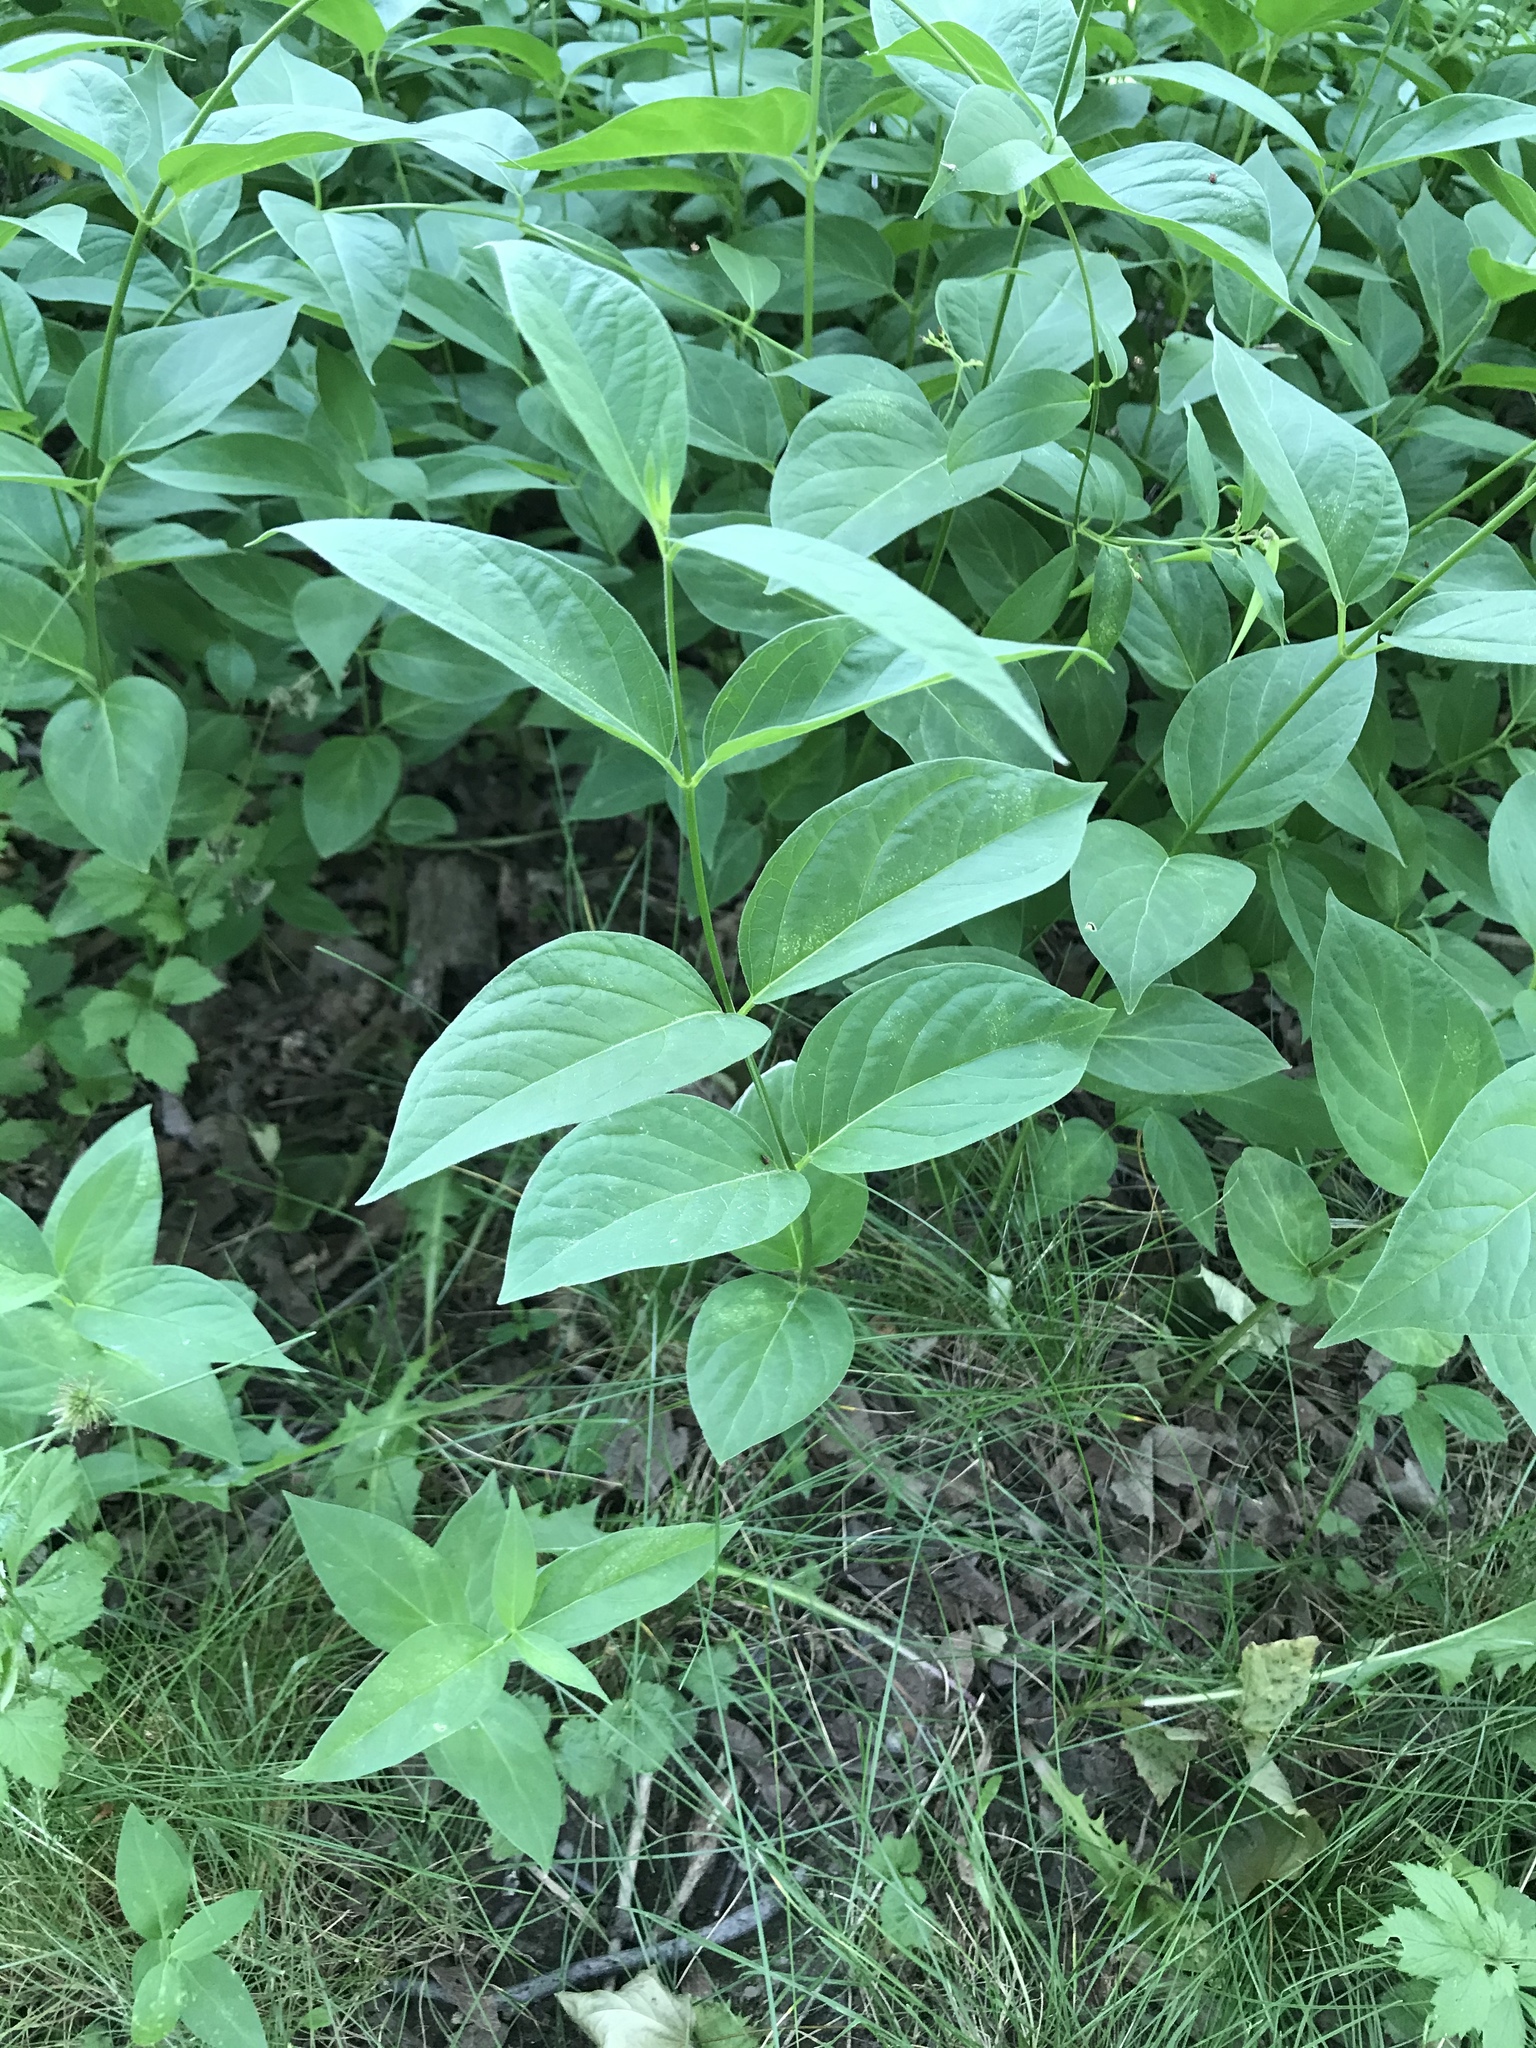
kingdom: Plantae
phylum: Tracheophyta
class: Magnoliopsida
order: Gentianales
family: Apocynaceae
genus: Vincetoxicum
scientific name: Vincetoxicum rossicum
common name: Dog-strangling vine
